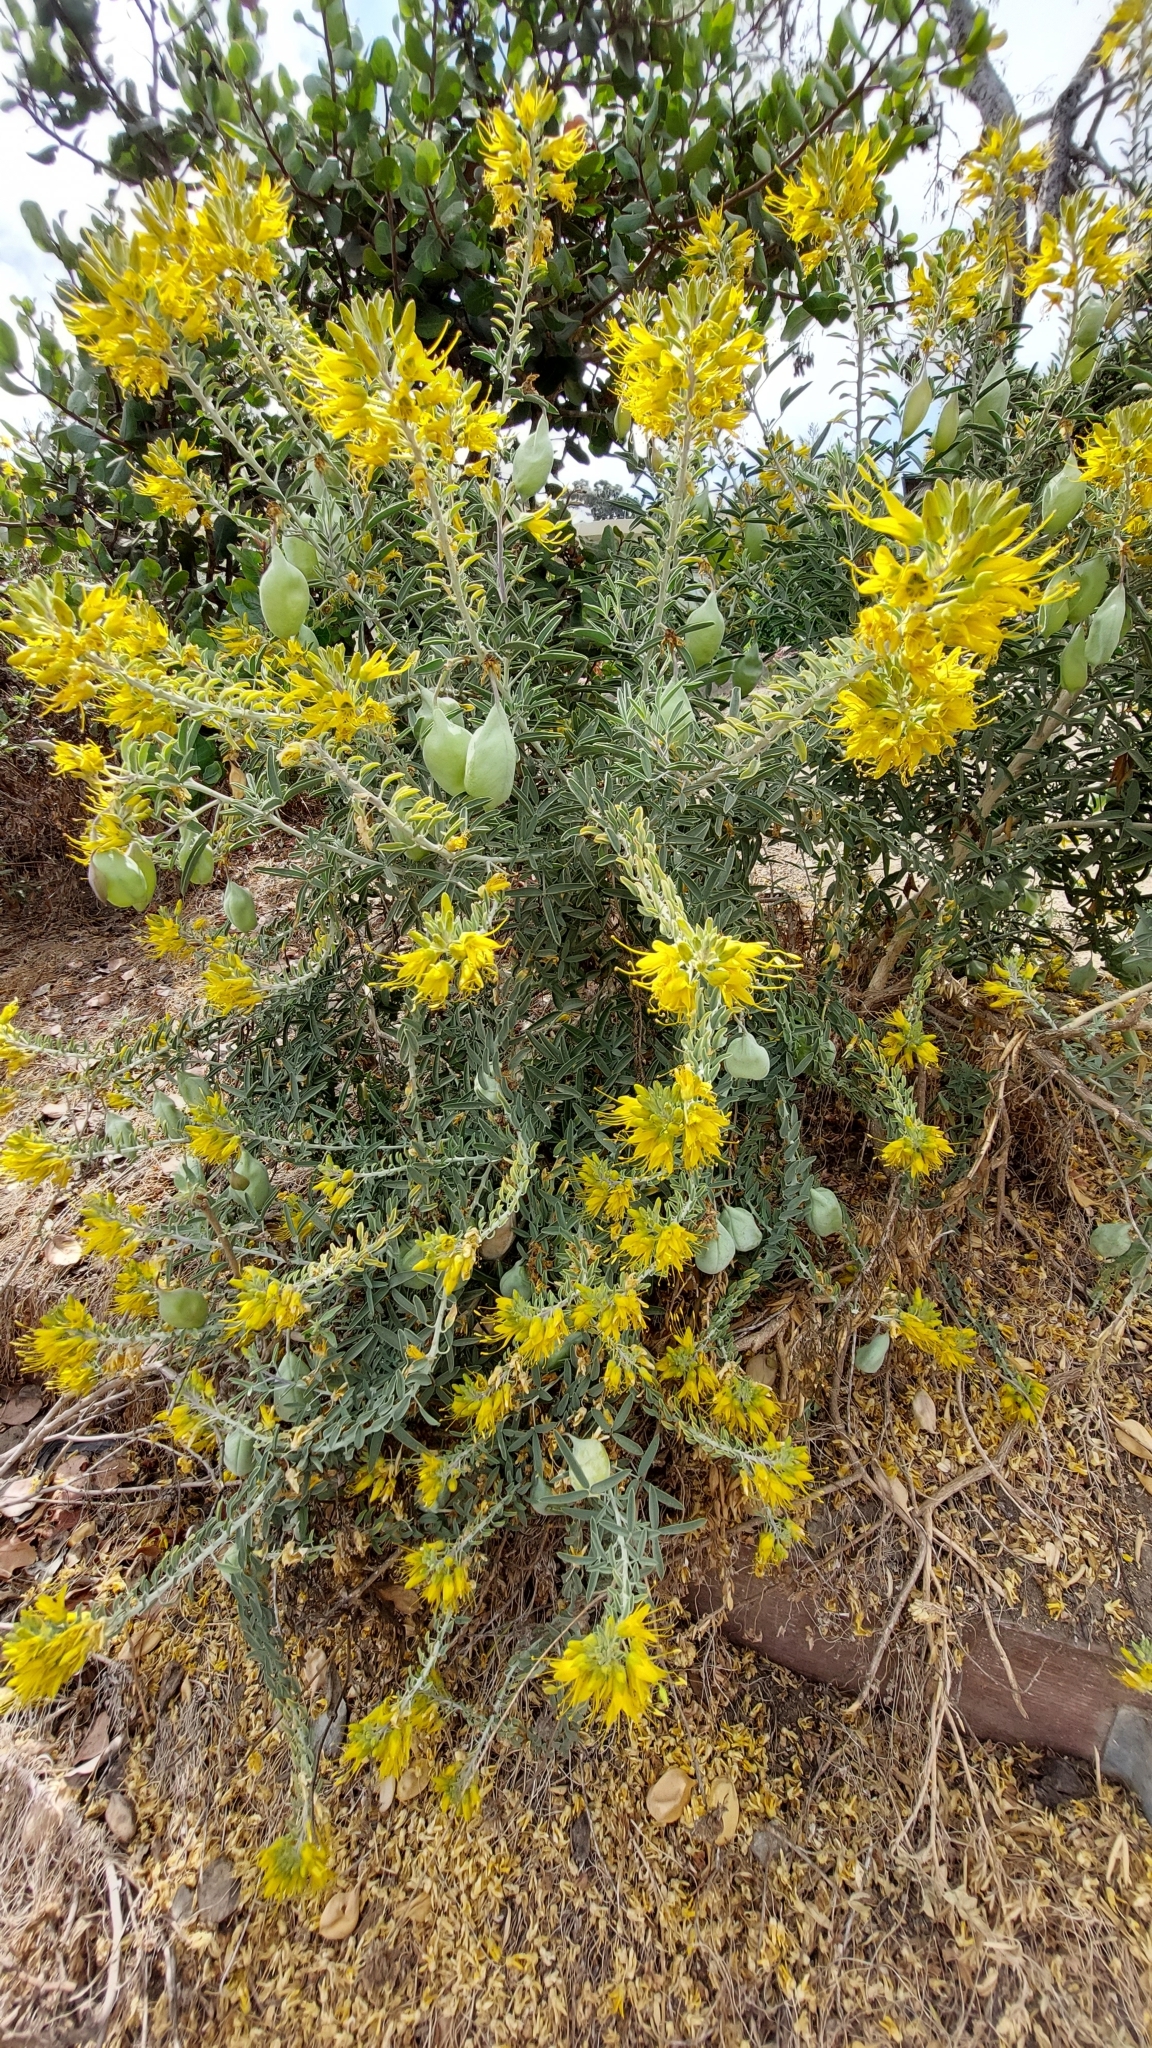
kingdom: Plantae
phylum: Tracheophyta
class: Magnoliopsida
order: Brassicales
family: Cleomaceae
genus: Cleomella
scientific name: Cleomella arborea
